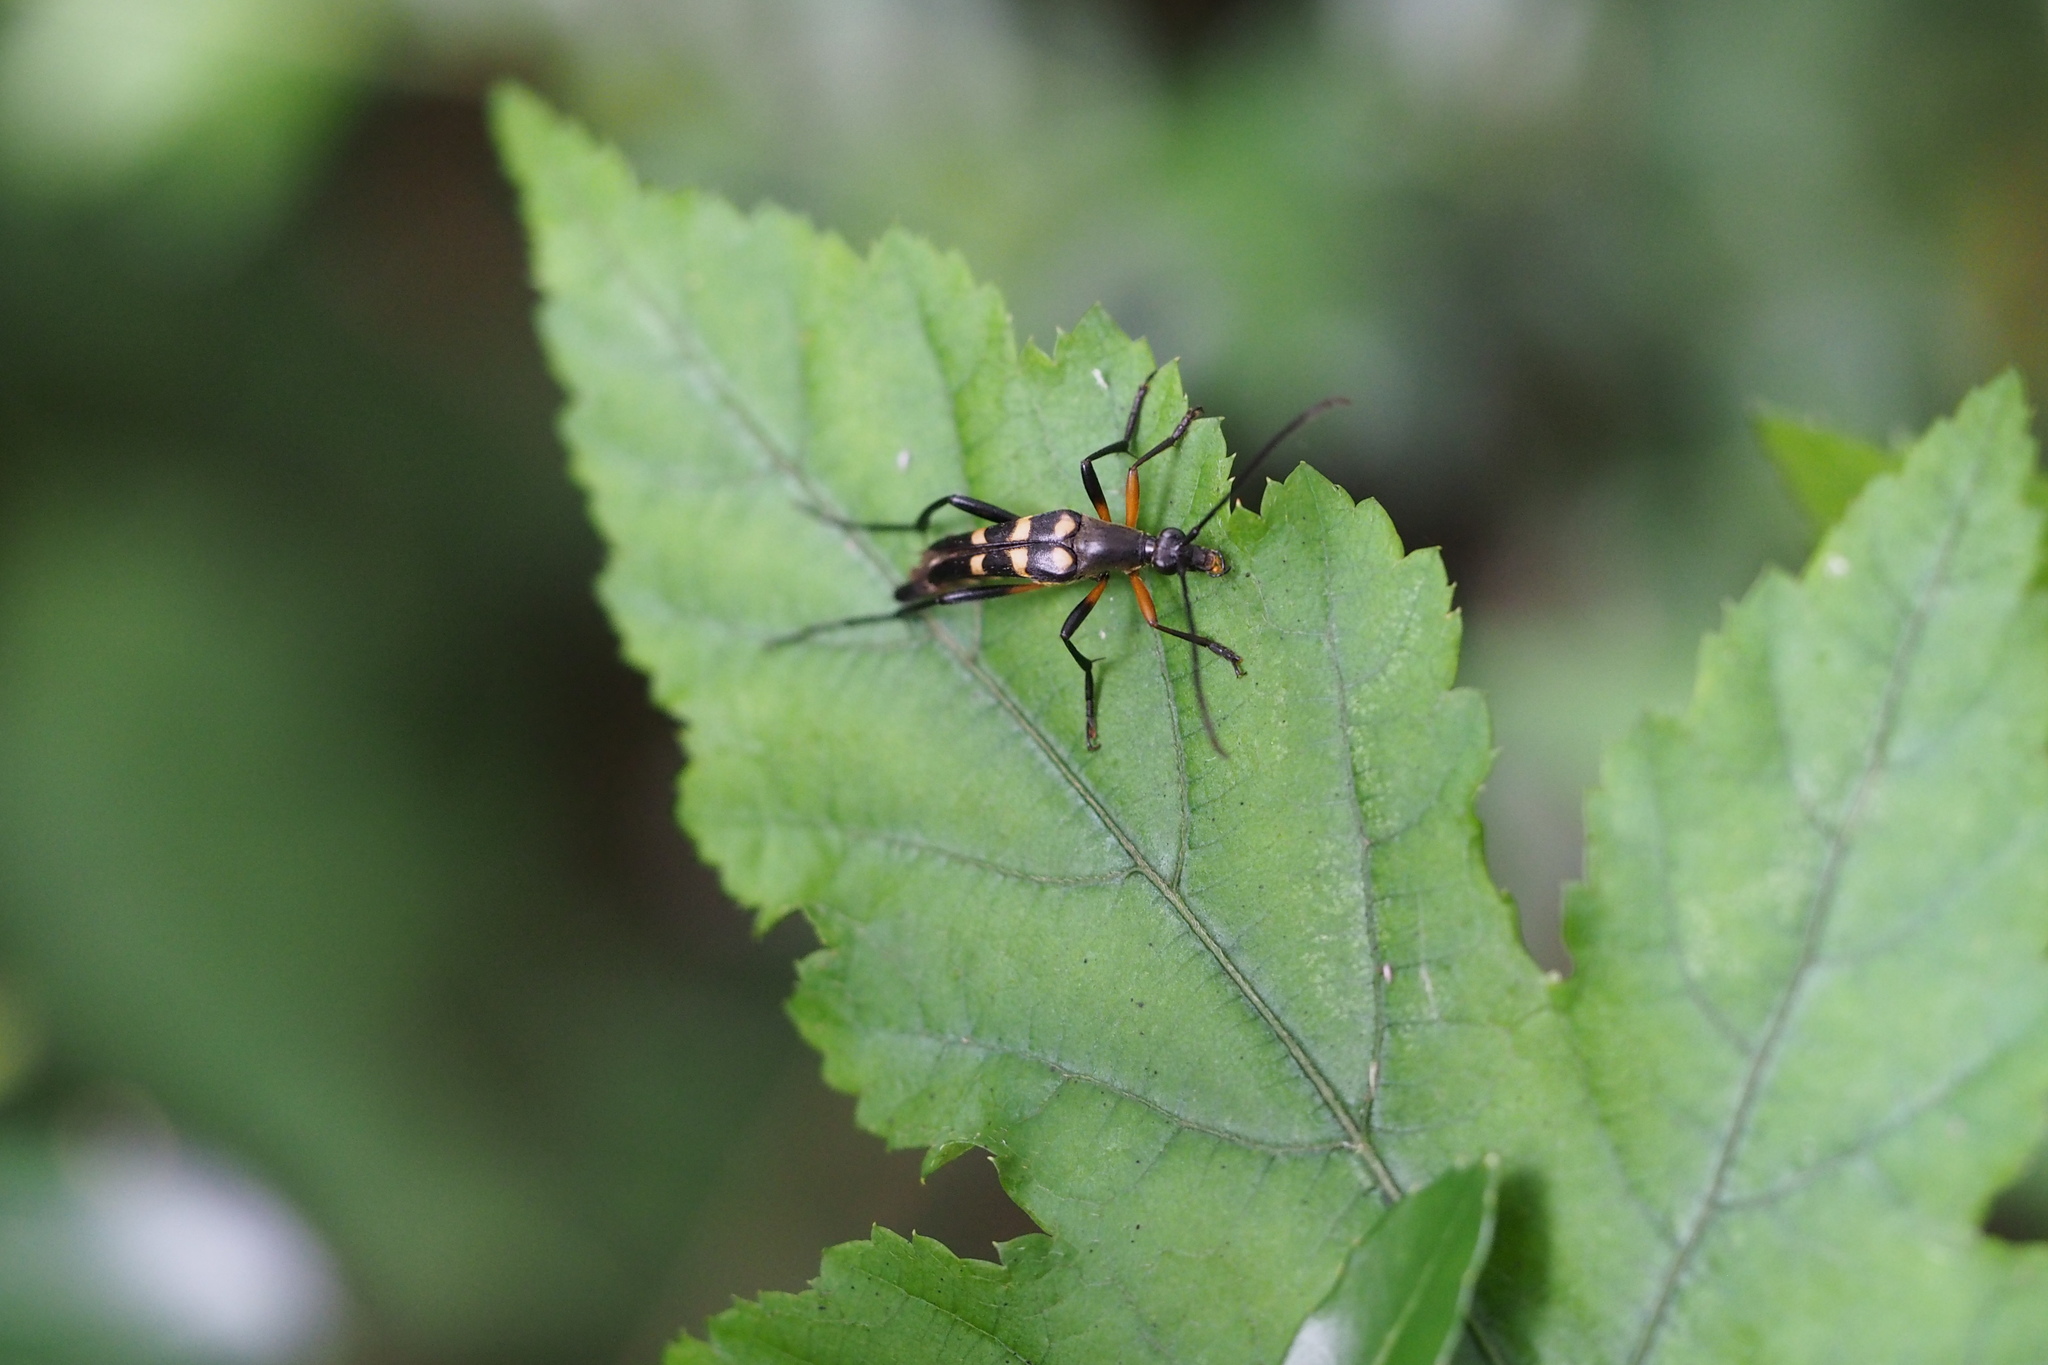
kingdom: Animalia
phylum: Arthropoda
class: Insecta
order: Coleoptera
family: Cerambycidae
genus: Strangalia
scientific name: Strangalia koyaensis
